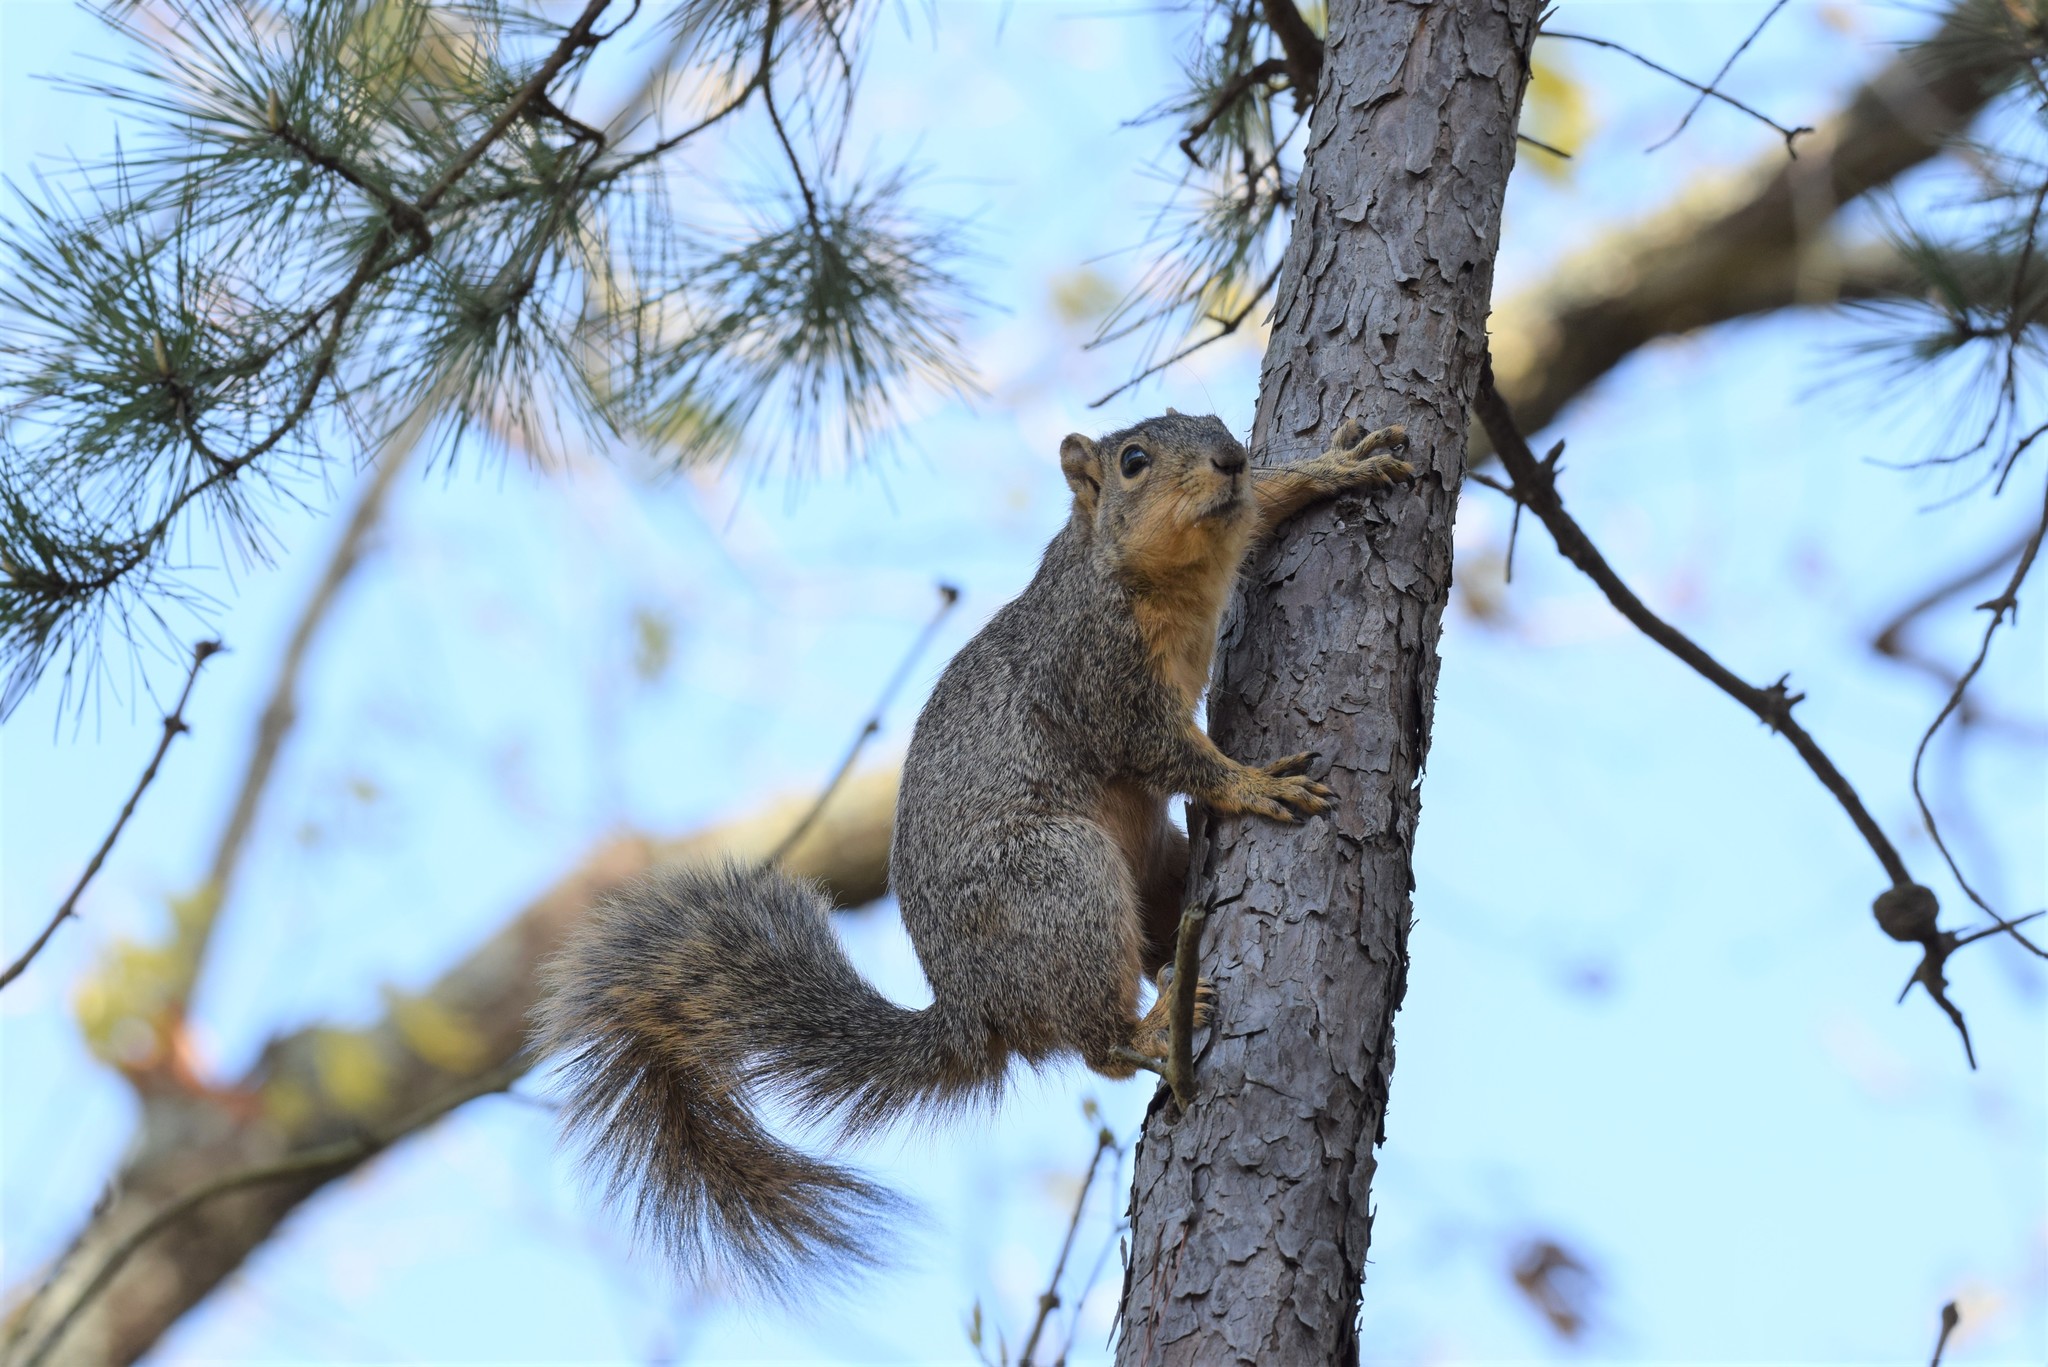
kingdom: Animalia
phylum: Chordata
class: Mammalia
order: Rodentia
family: Sciuridae
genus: Sciurus
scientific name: Sciurus niger
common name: Fox squirrel
